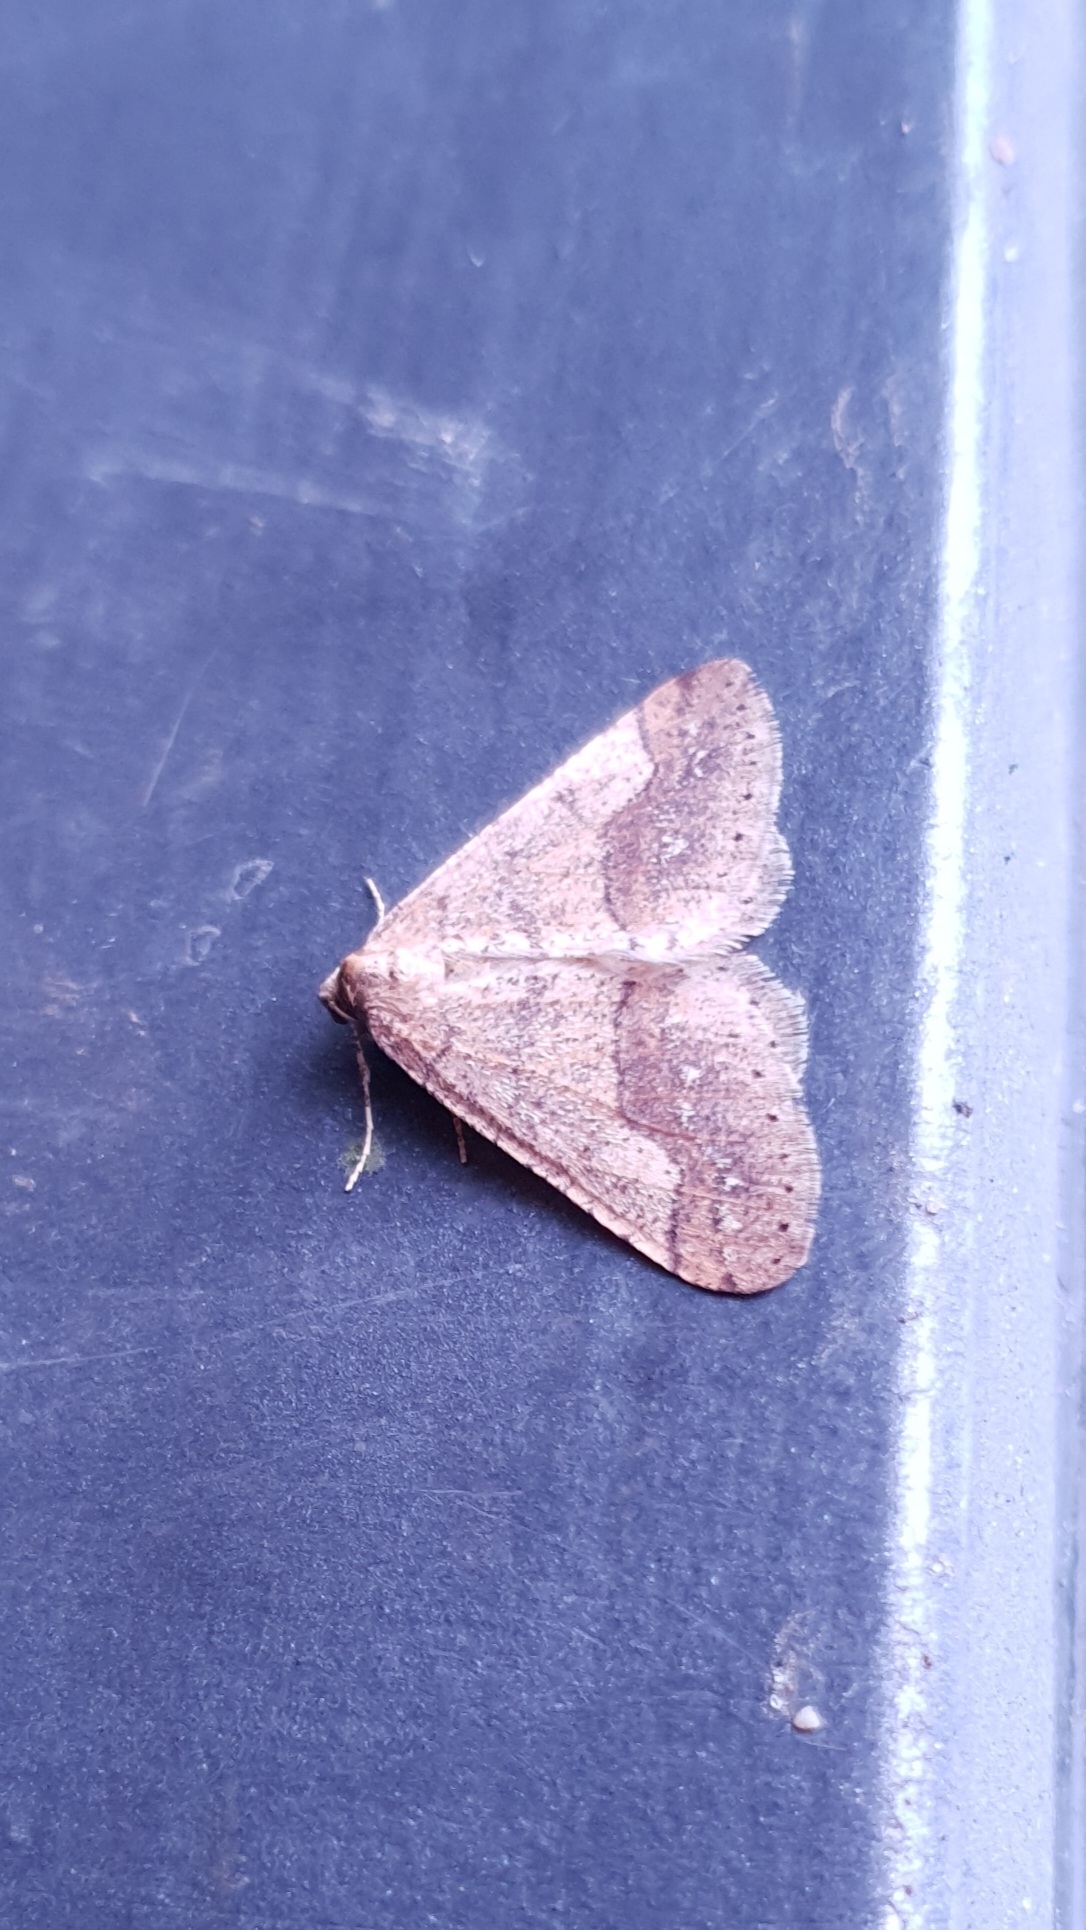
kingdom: Animalia
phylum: Arthropoda
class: Insecta
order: Lepidoptera
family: Geometridae
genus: Agriopis
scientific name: Agriopis marginaria
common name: Dotted border
